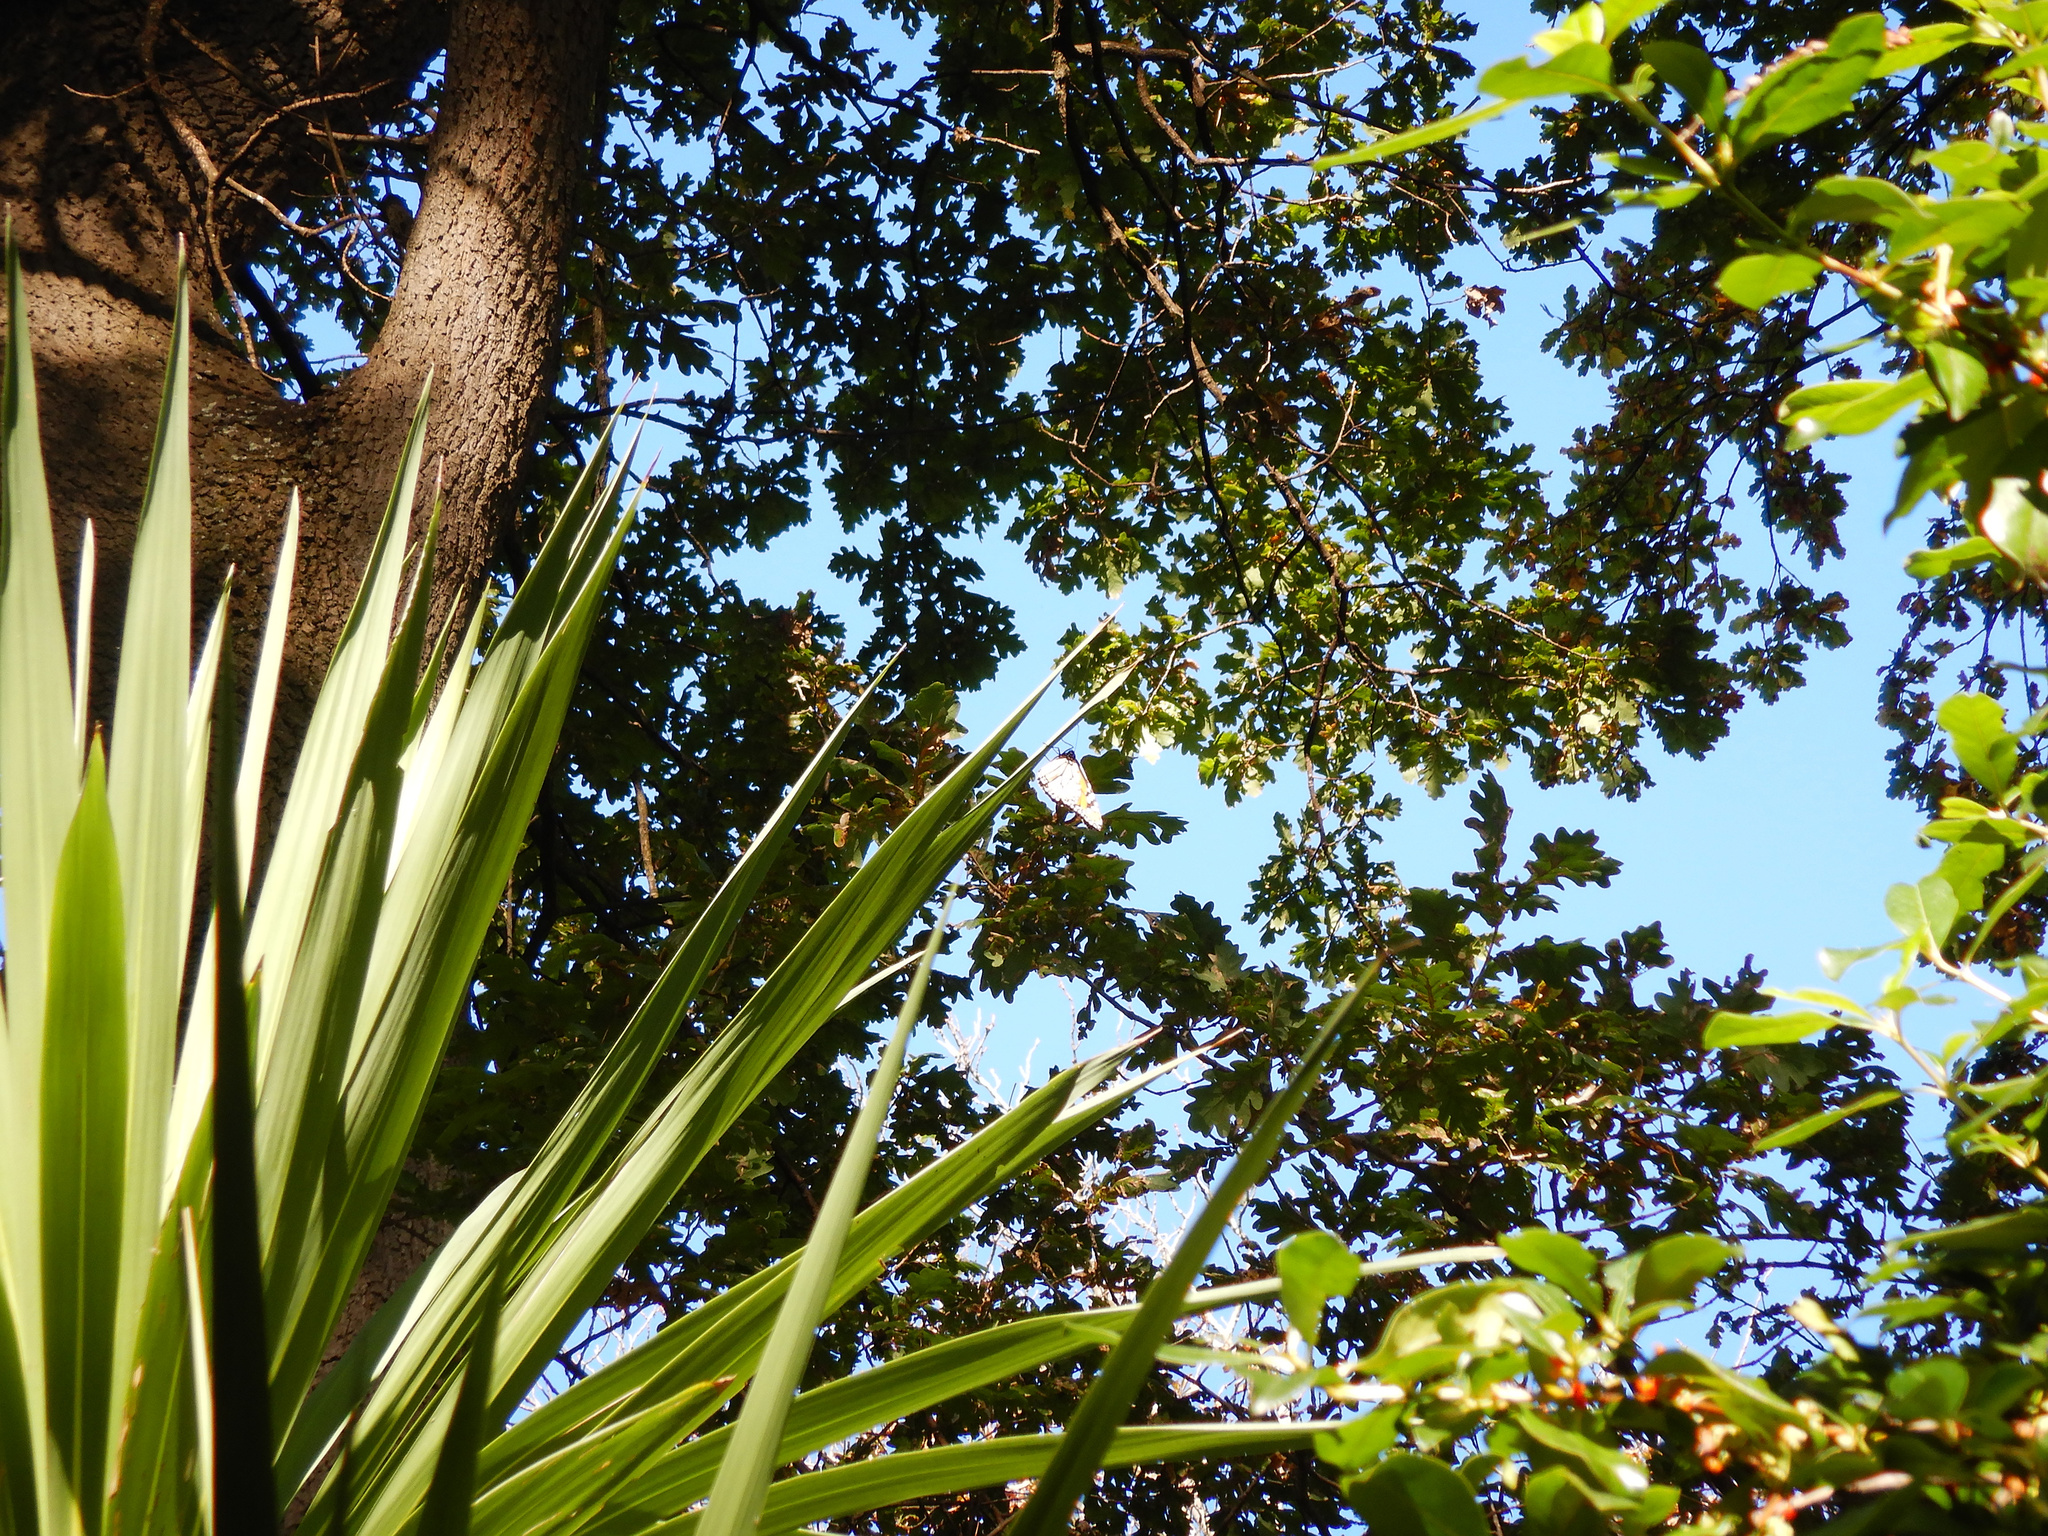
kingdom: Animalia
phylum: Arthropoda
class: Insecta
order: Lepidoptera
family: Nymphalidae
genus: Danaus
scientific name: Danaus plexippus
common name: Monarch
